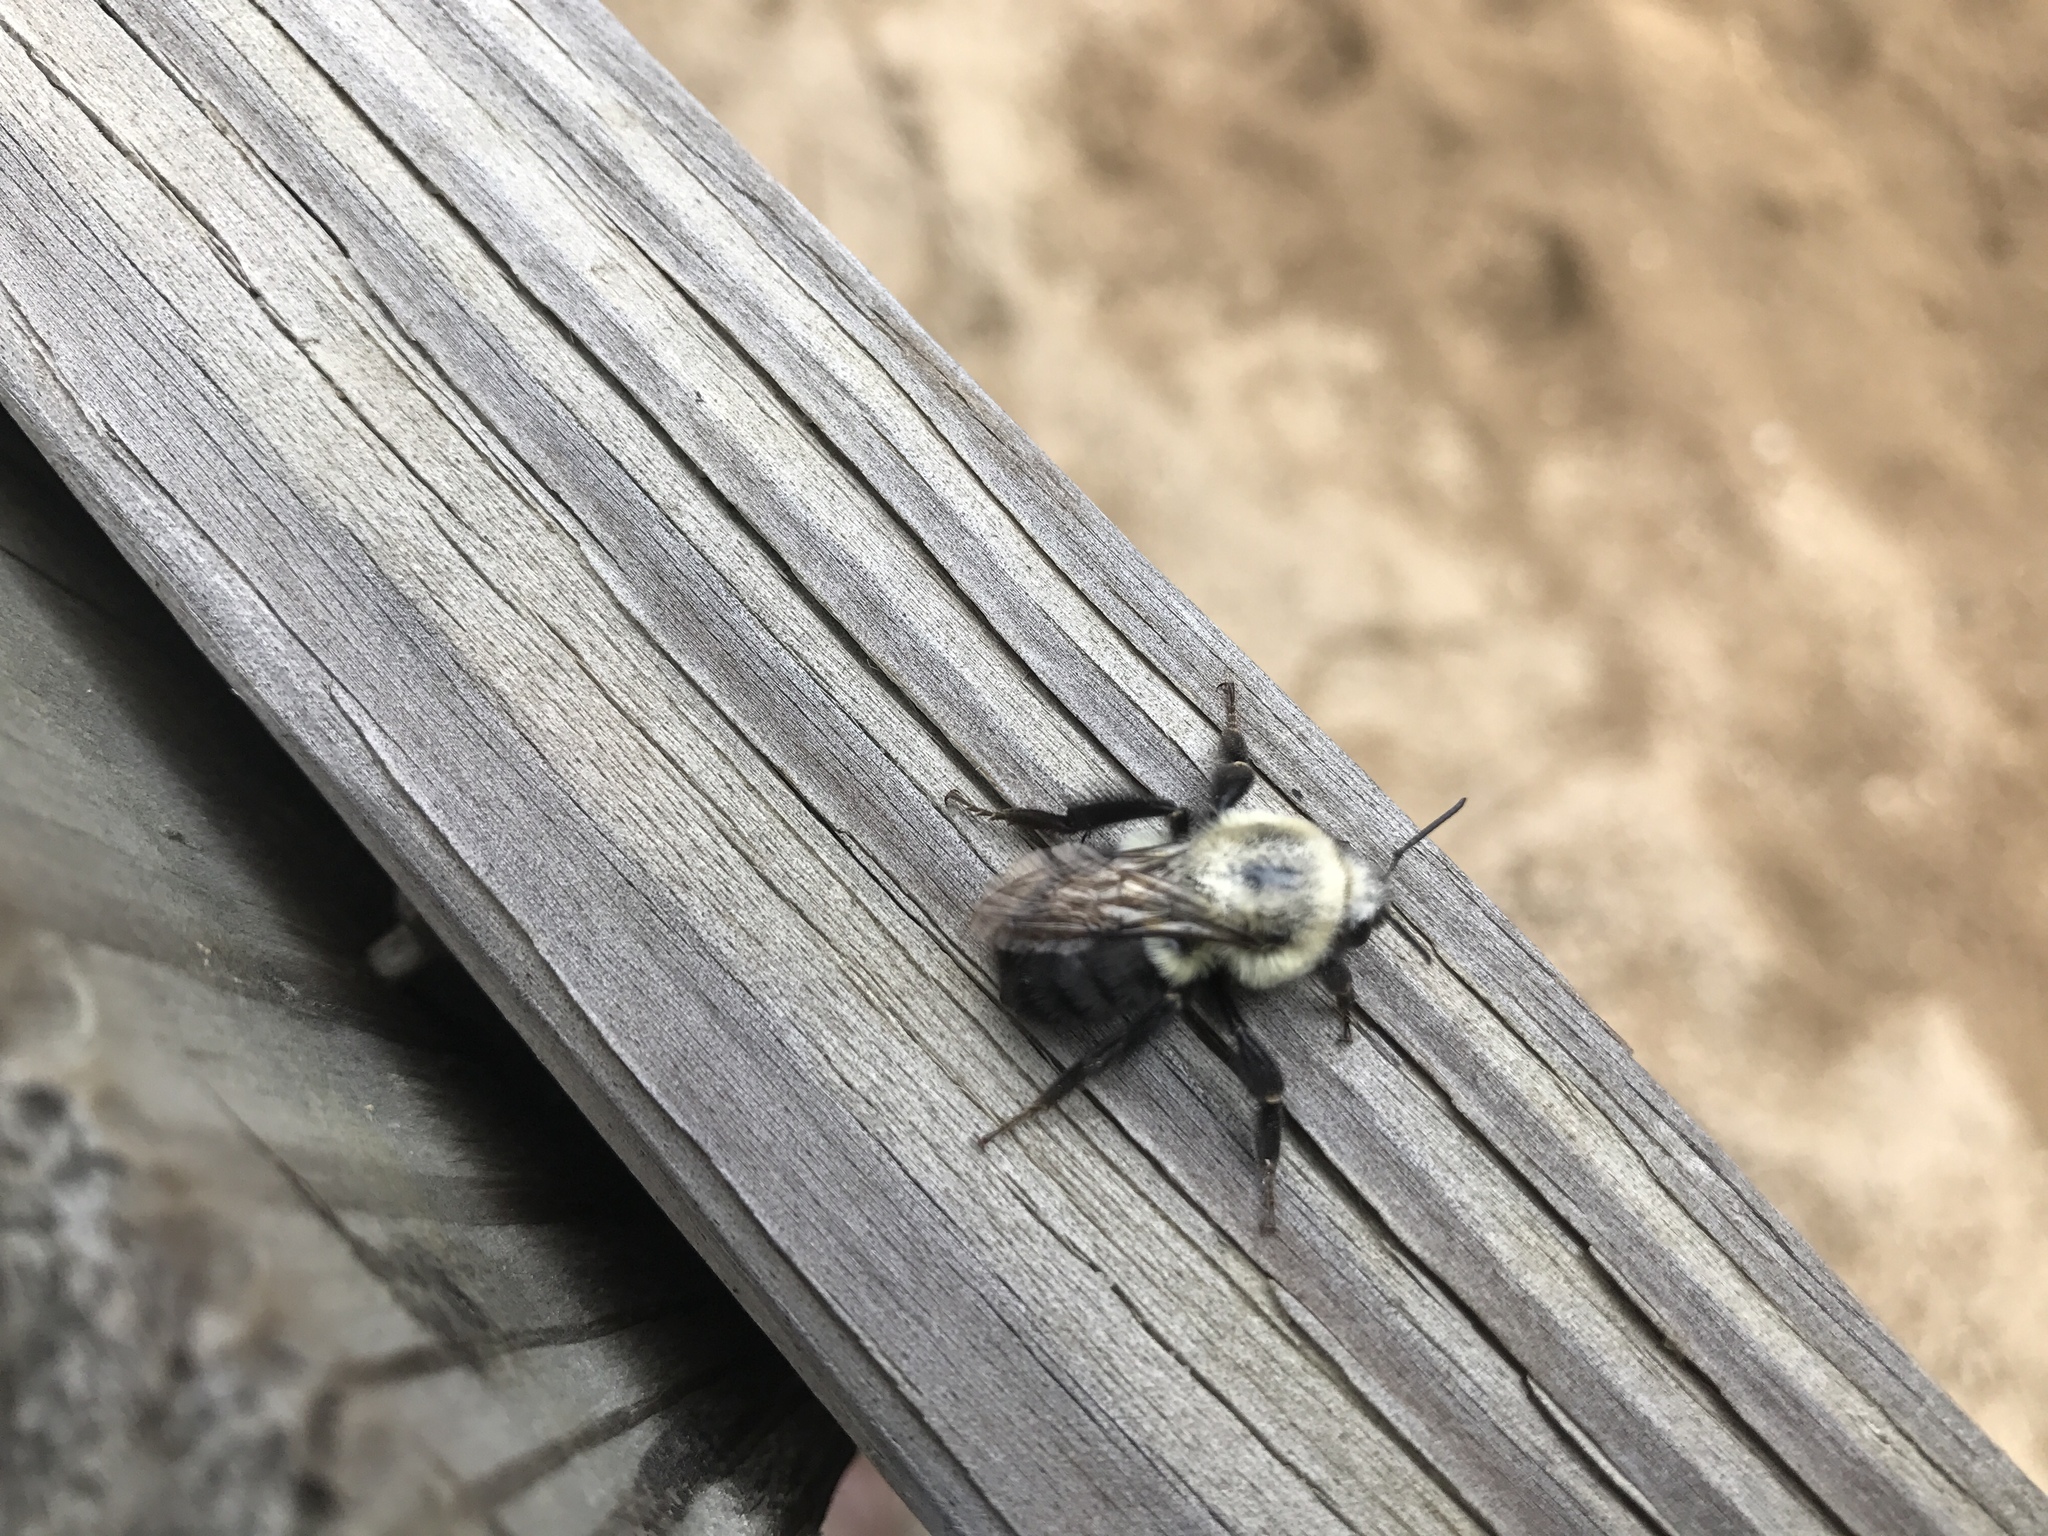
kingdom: Animalia
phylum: Arthropoda
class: Insecta
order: Hymenoptera
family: Apidae
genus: Bombus
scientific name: Bombus impatiens
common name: Common eastern bumble bee
